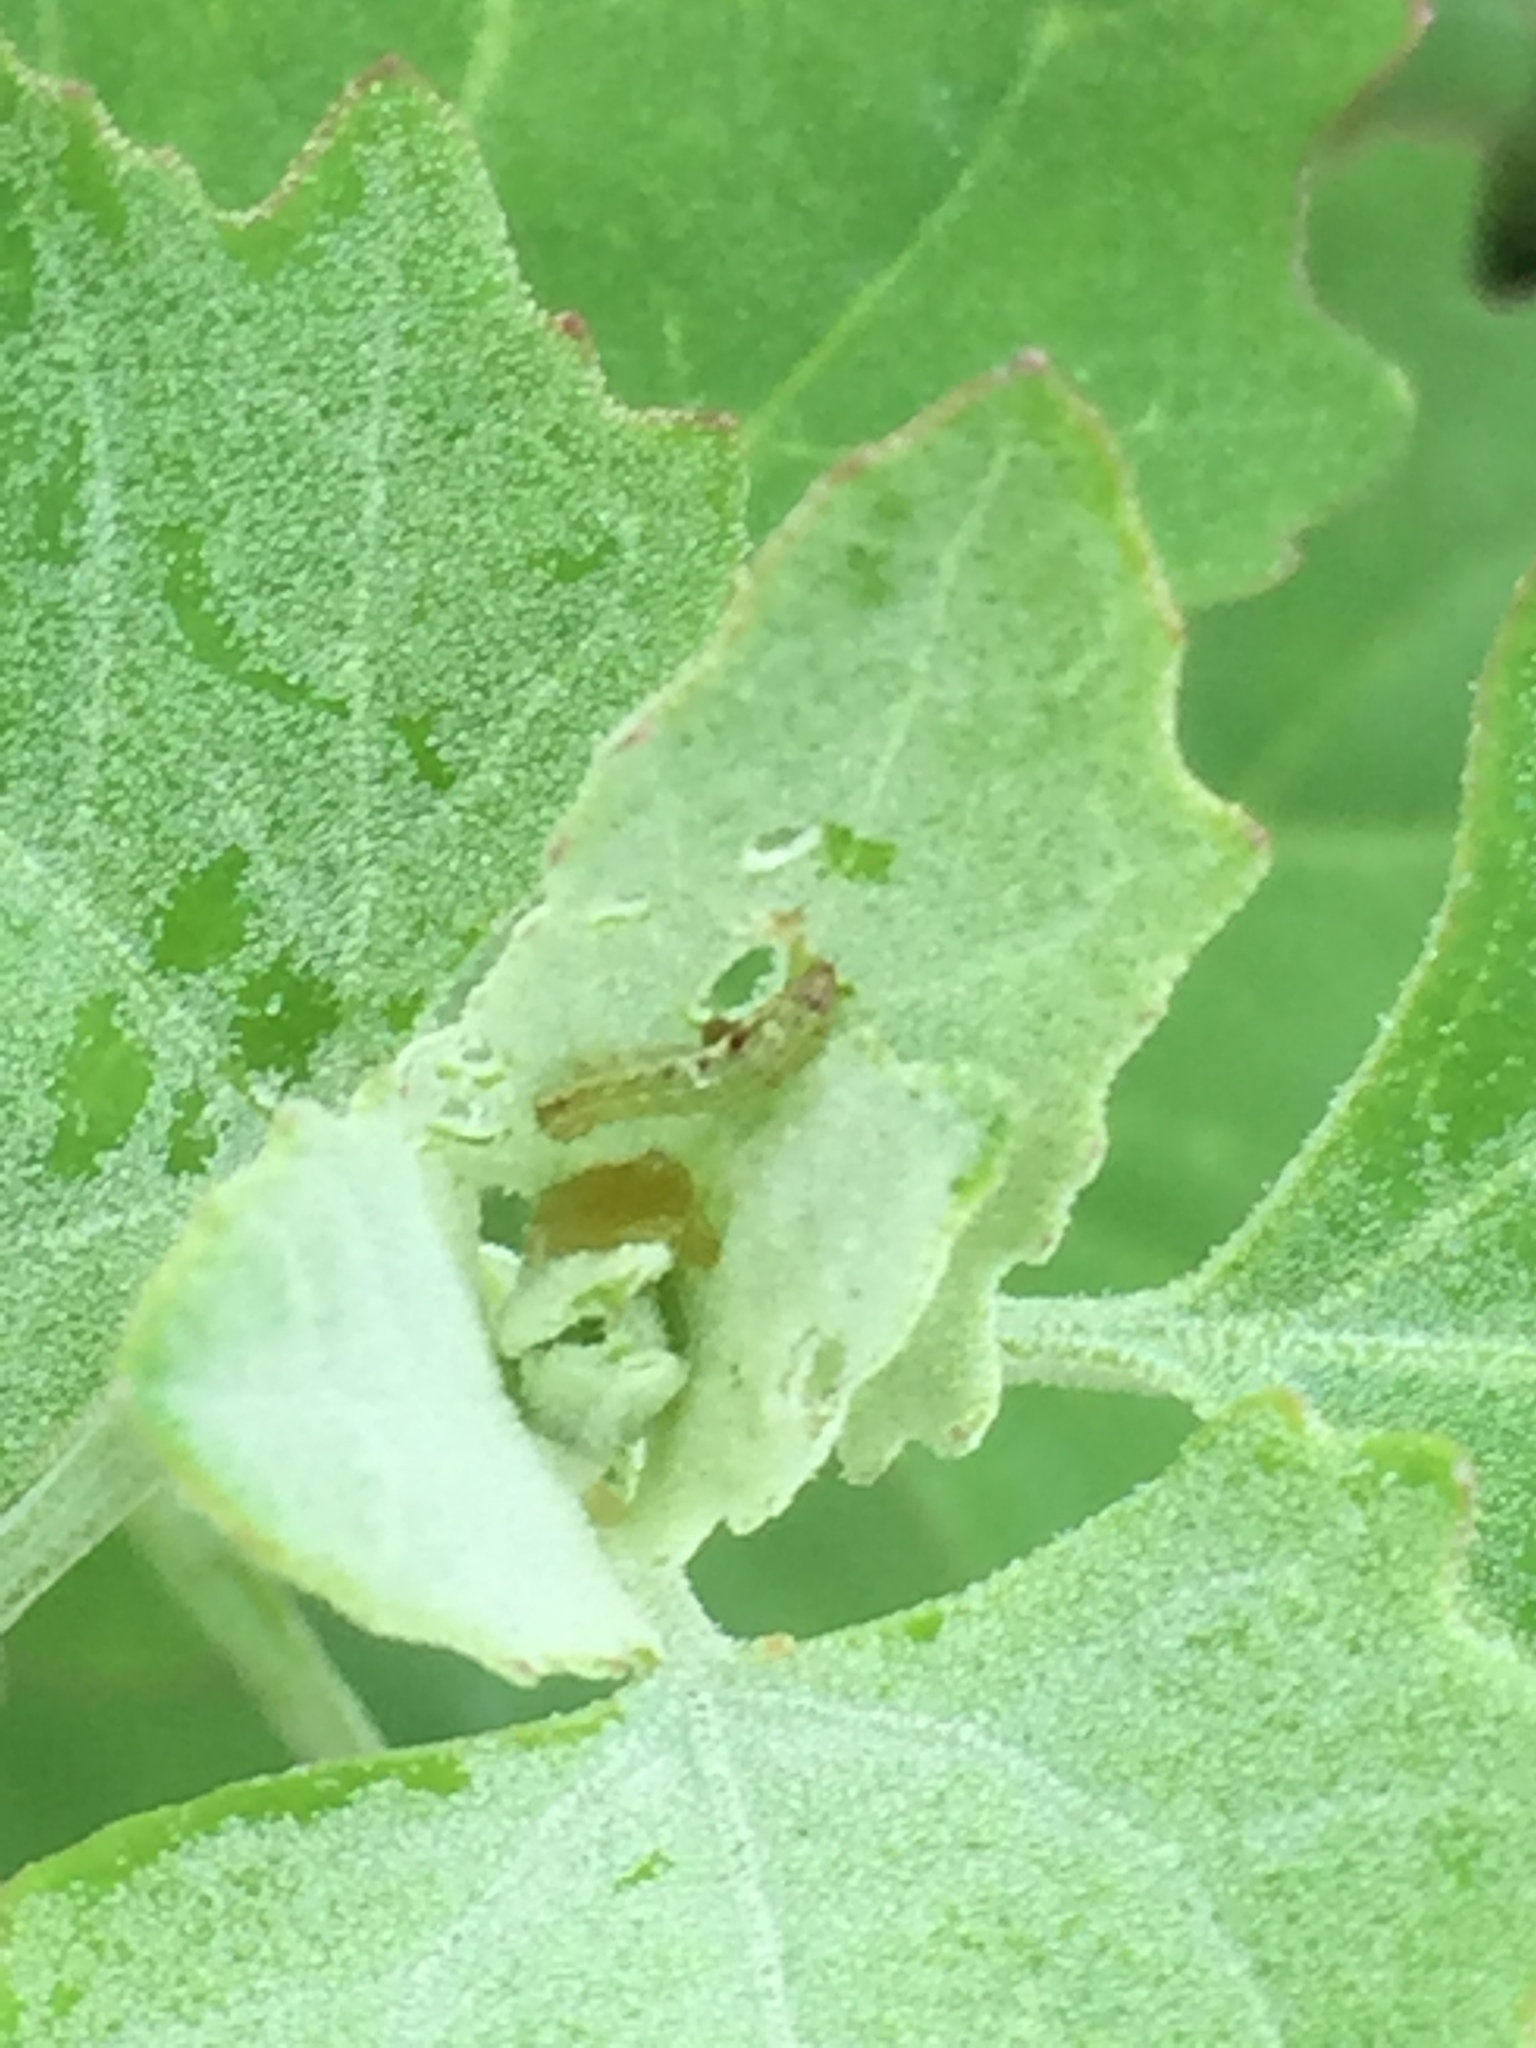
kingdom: Animalia
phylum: Arthropoda
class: Insecta
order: Lepidoptera
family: Noctuidae
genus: Spodoptera
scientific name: Spodoptera litura
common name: Asian cotton leafworm
